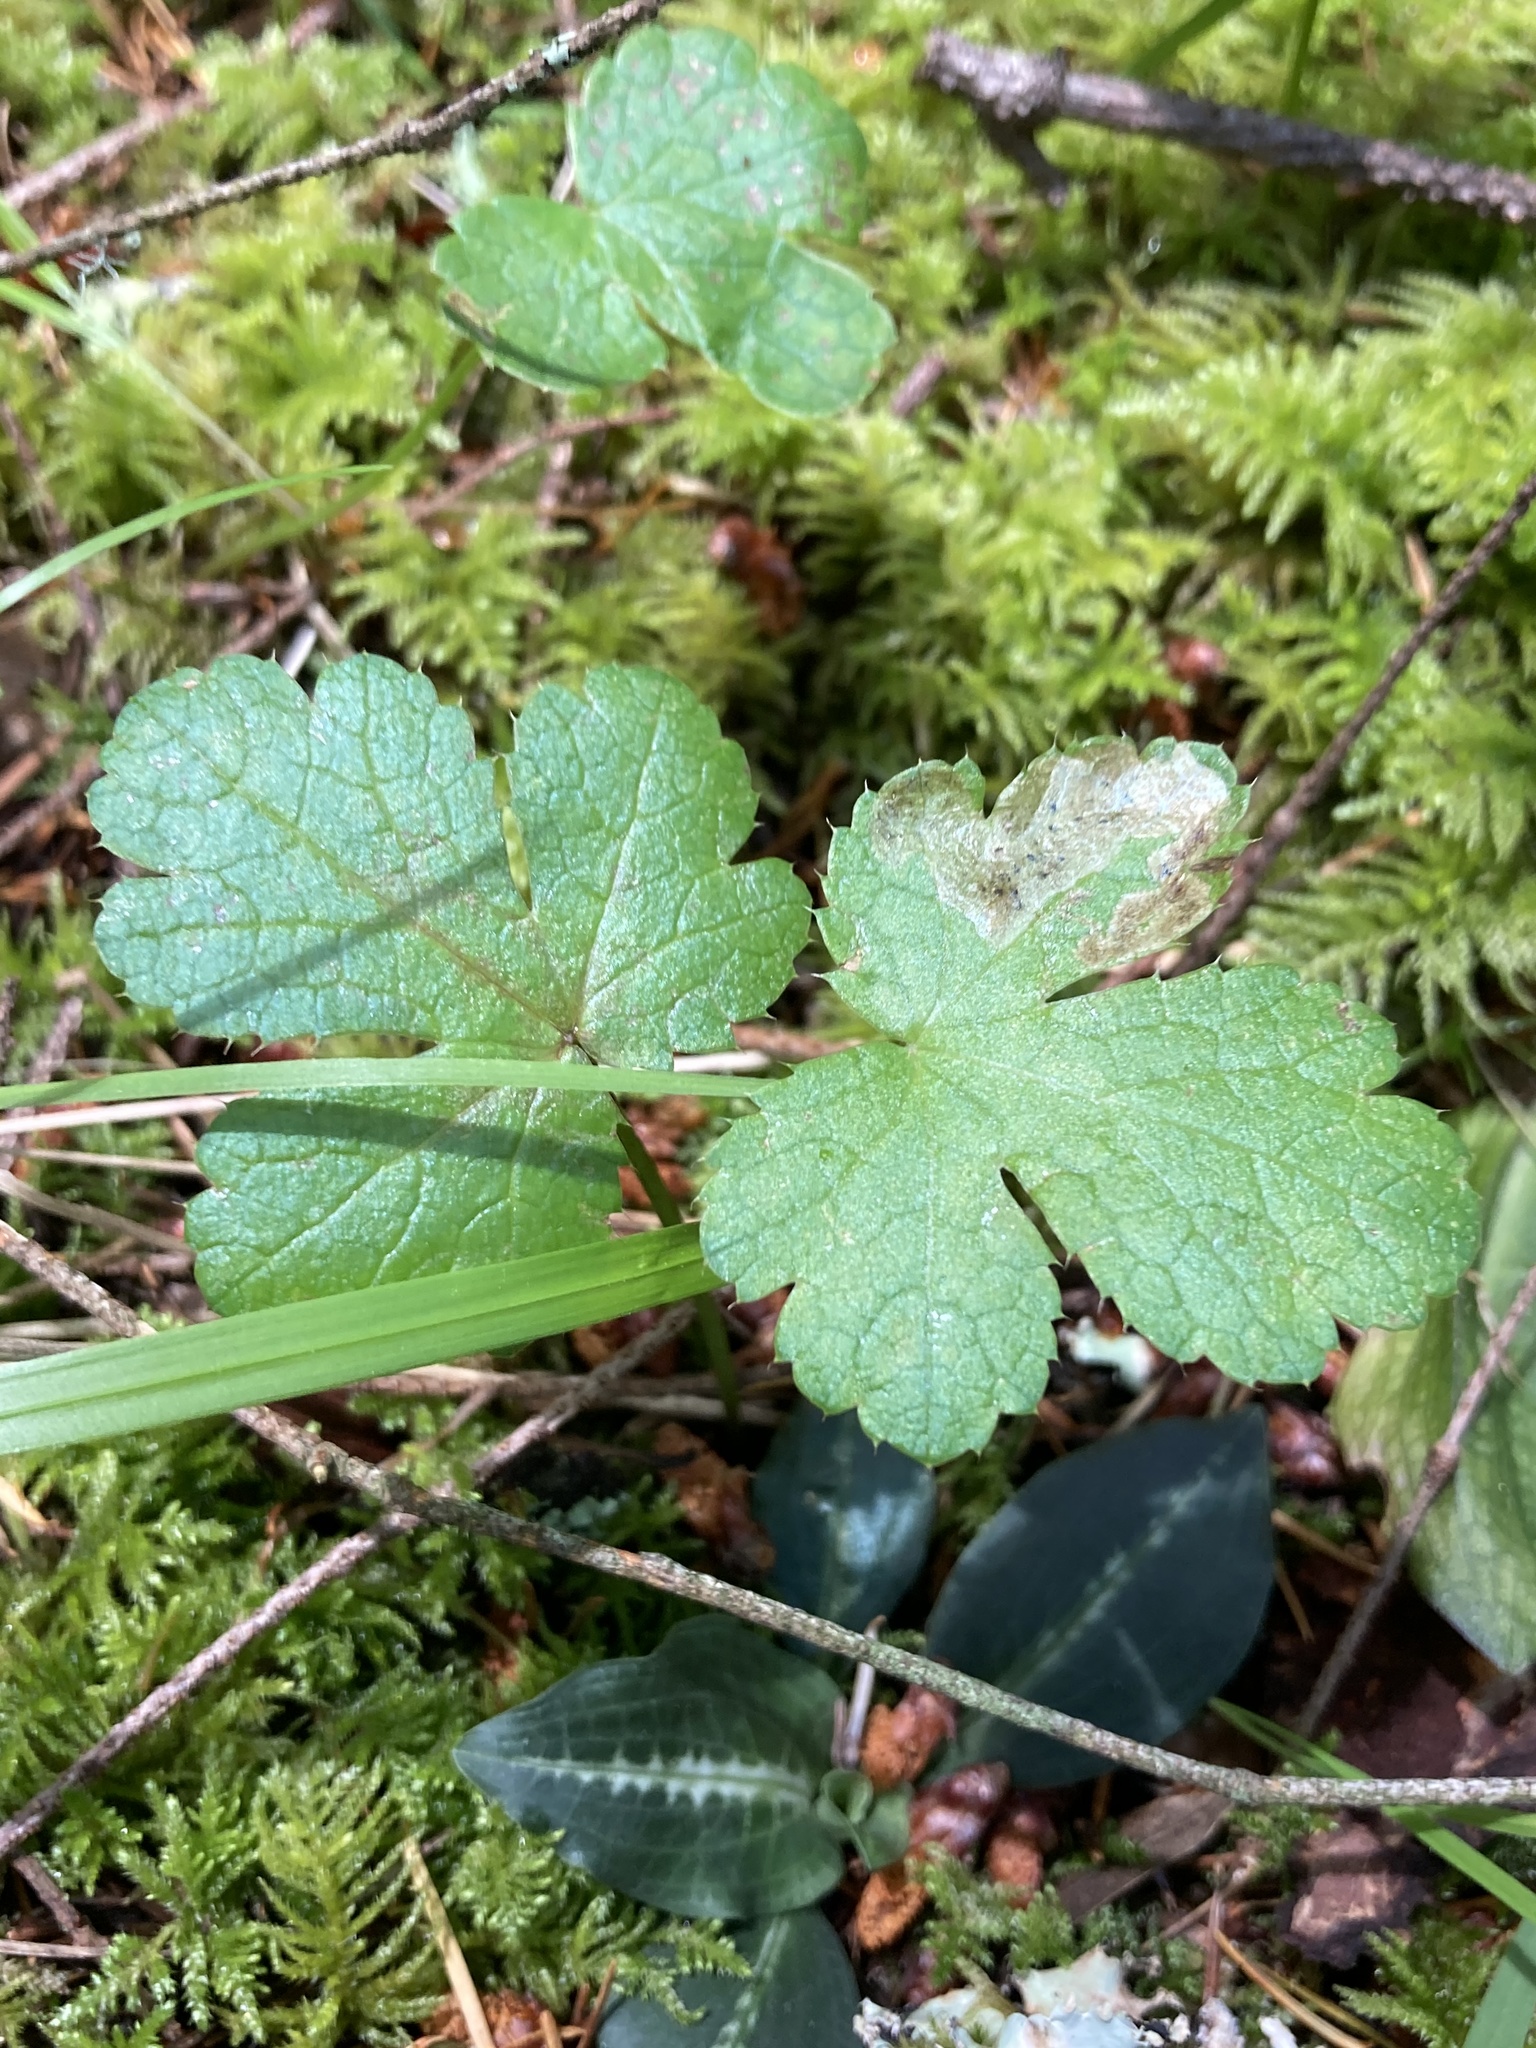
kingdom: Plantae
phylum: Tracheophyta
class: Magnoliopsida
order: Apiales
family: Apiaceae
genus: Sanicula
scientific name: Sanicula crassicaulis
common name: Western snakeroot
